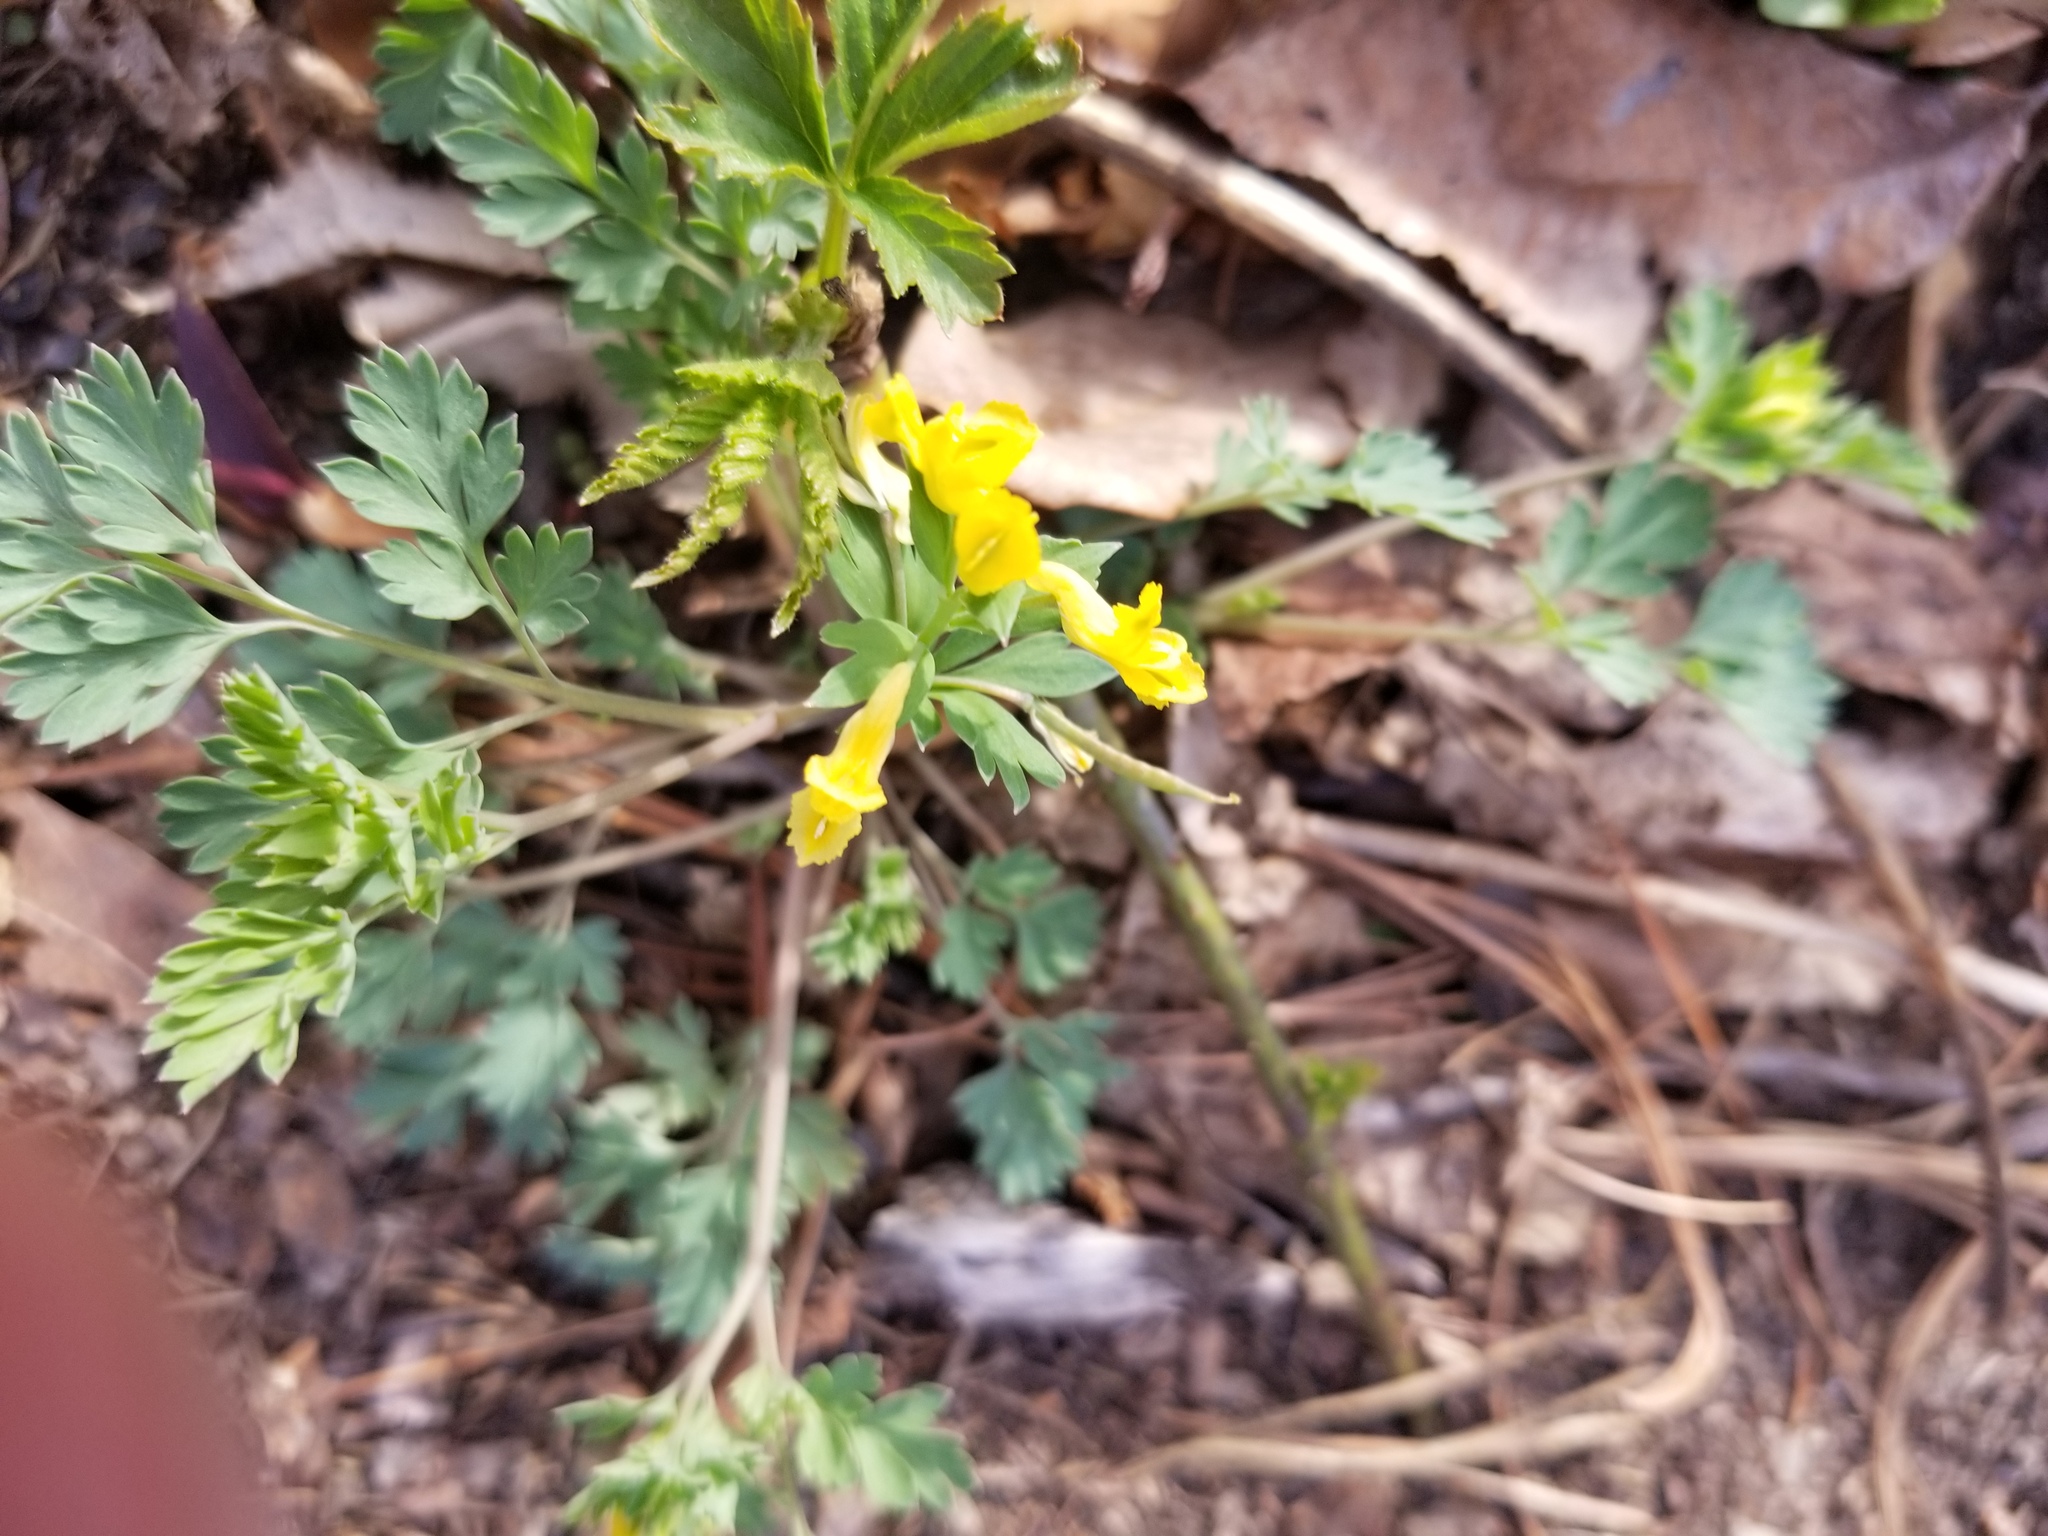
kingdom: Plantae
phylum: Tracheophyta
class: Magnoliopsida
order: Ranunculales
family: Papaveraceae
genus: Corydalis
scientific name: Corydalis flavula
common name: Yellow corydalis
